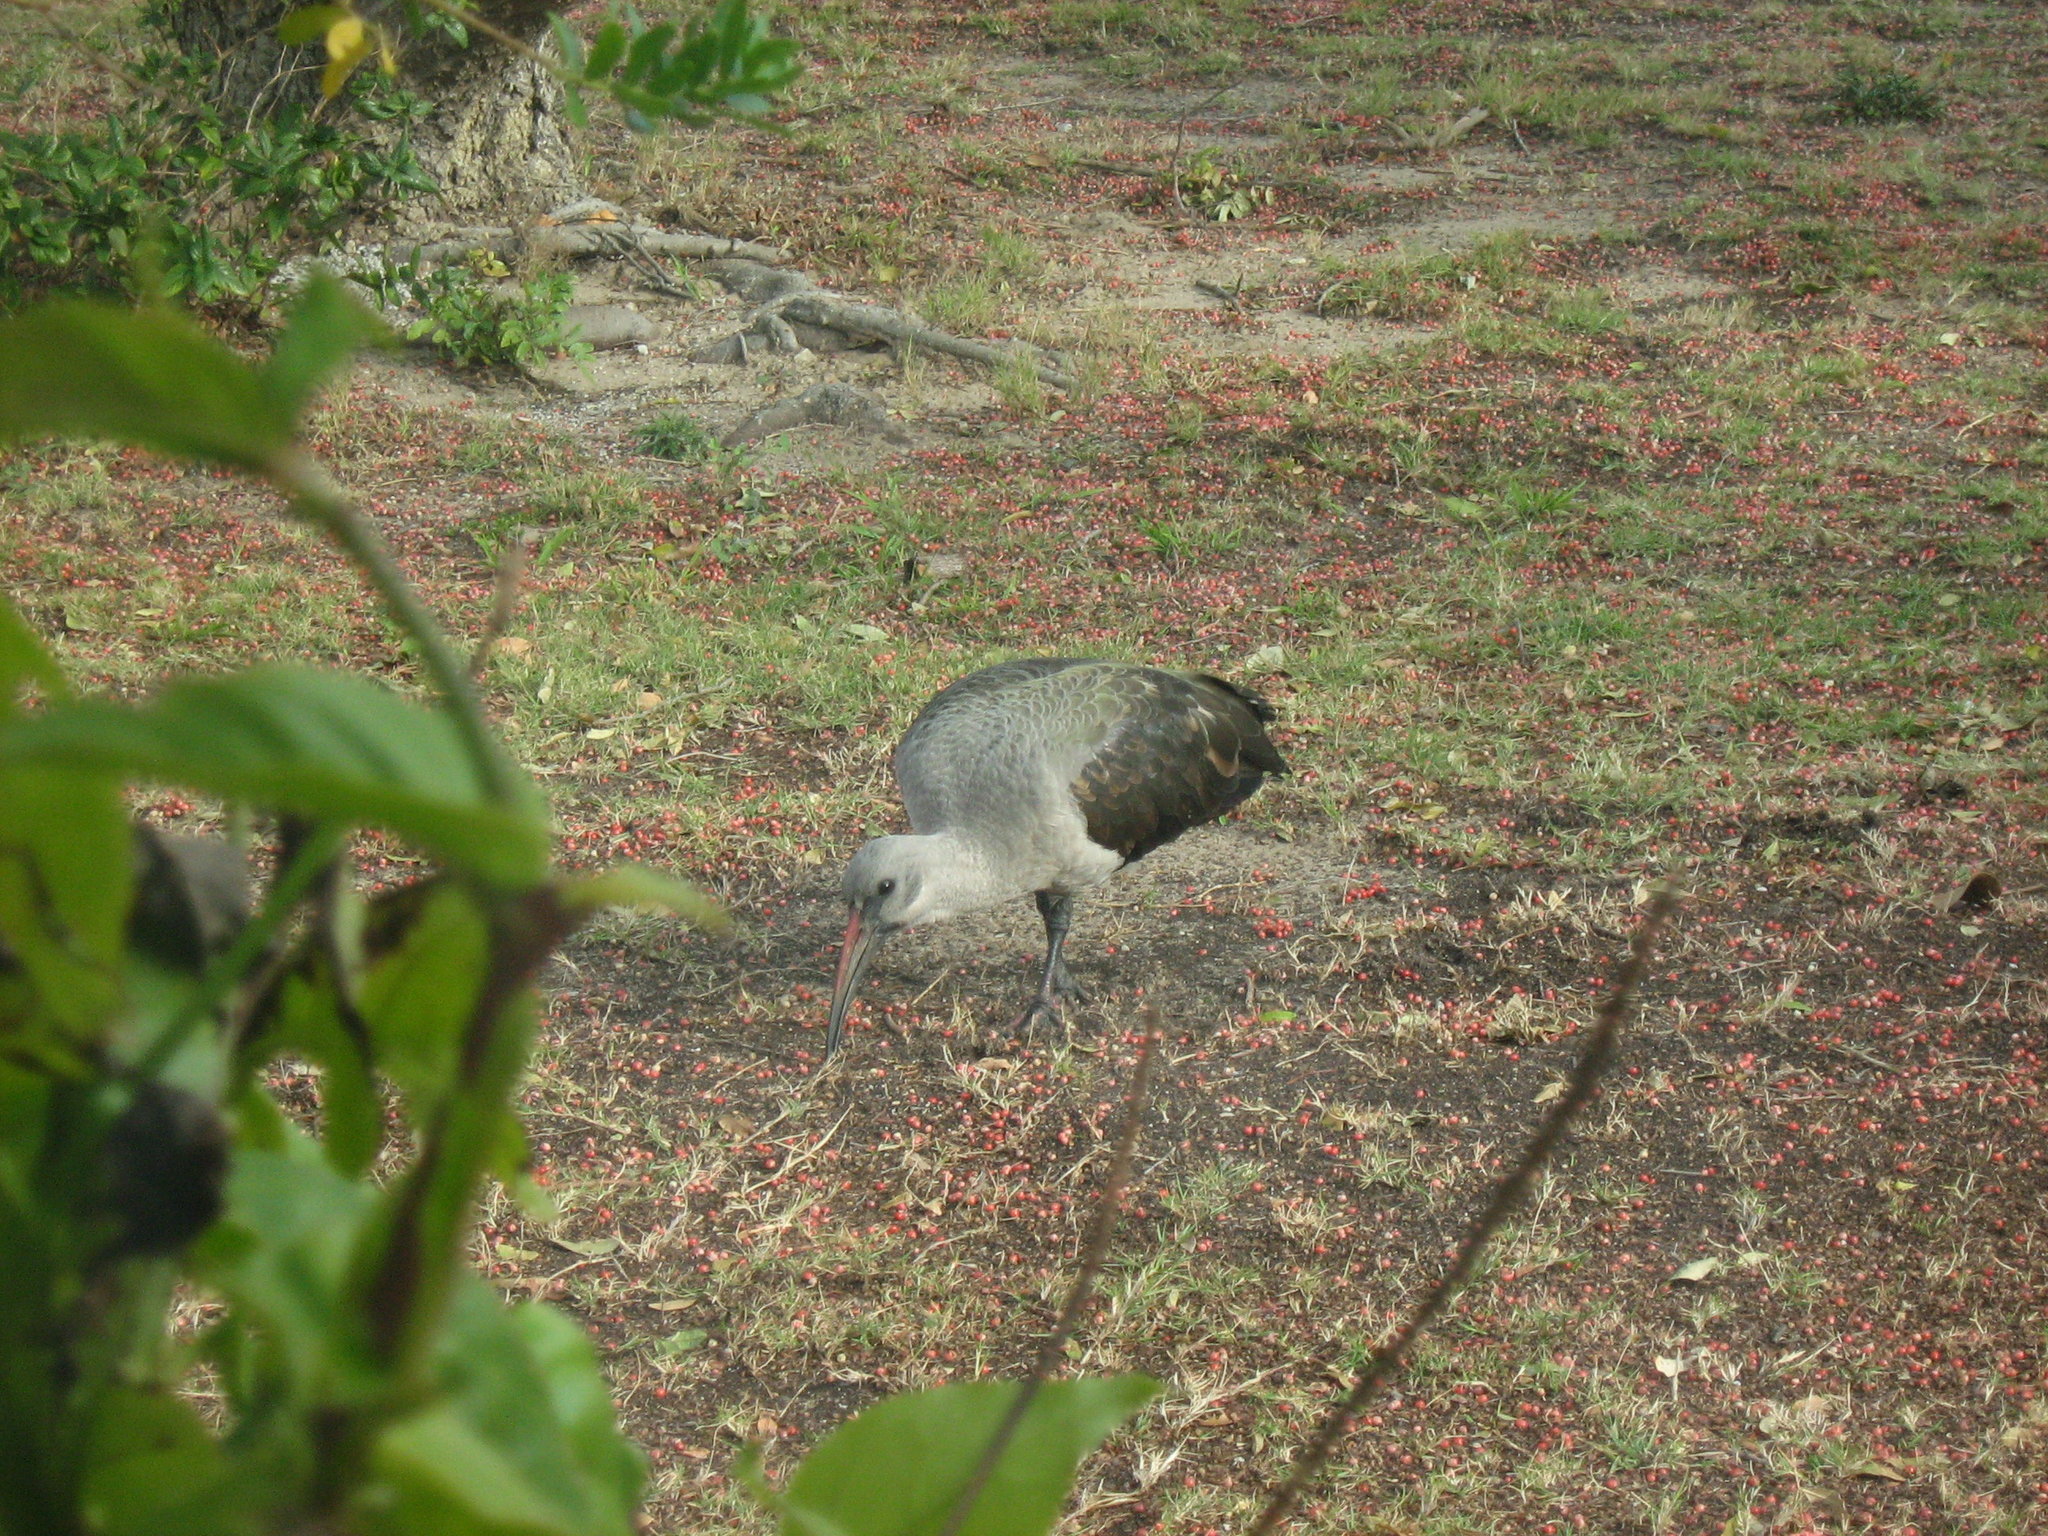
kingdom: Animalia
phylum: Chordata
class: Aves
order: Pelecaniformes
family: Threskiornithidae
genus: Bostrychia
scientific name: Bostrychia hagedash
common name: Hadada ibis
